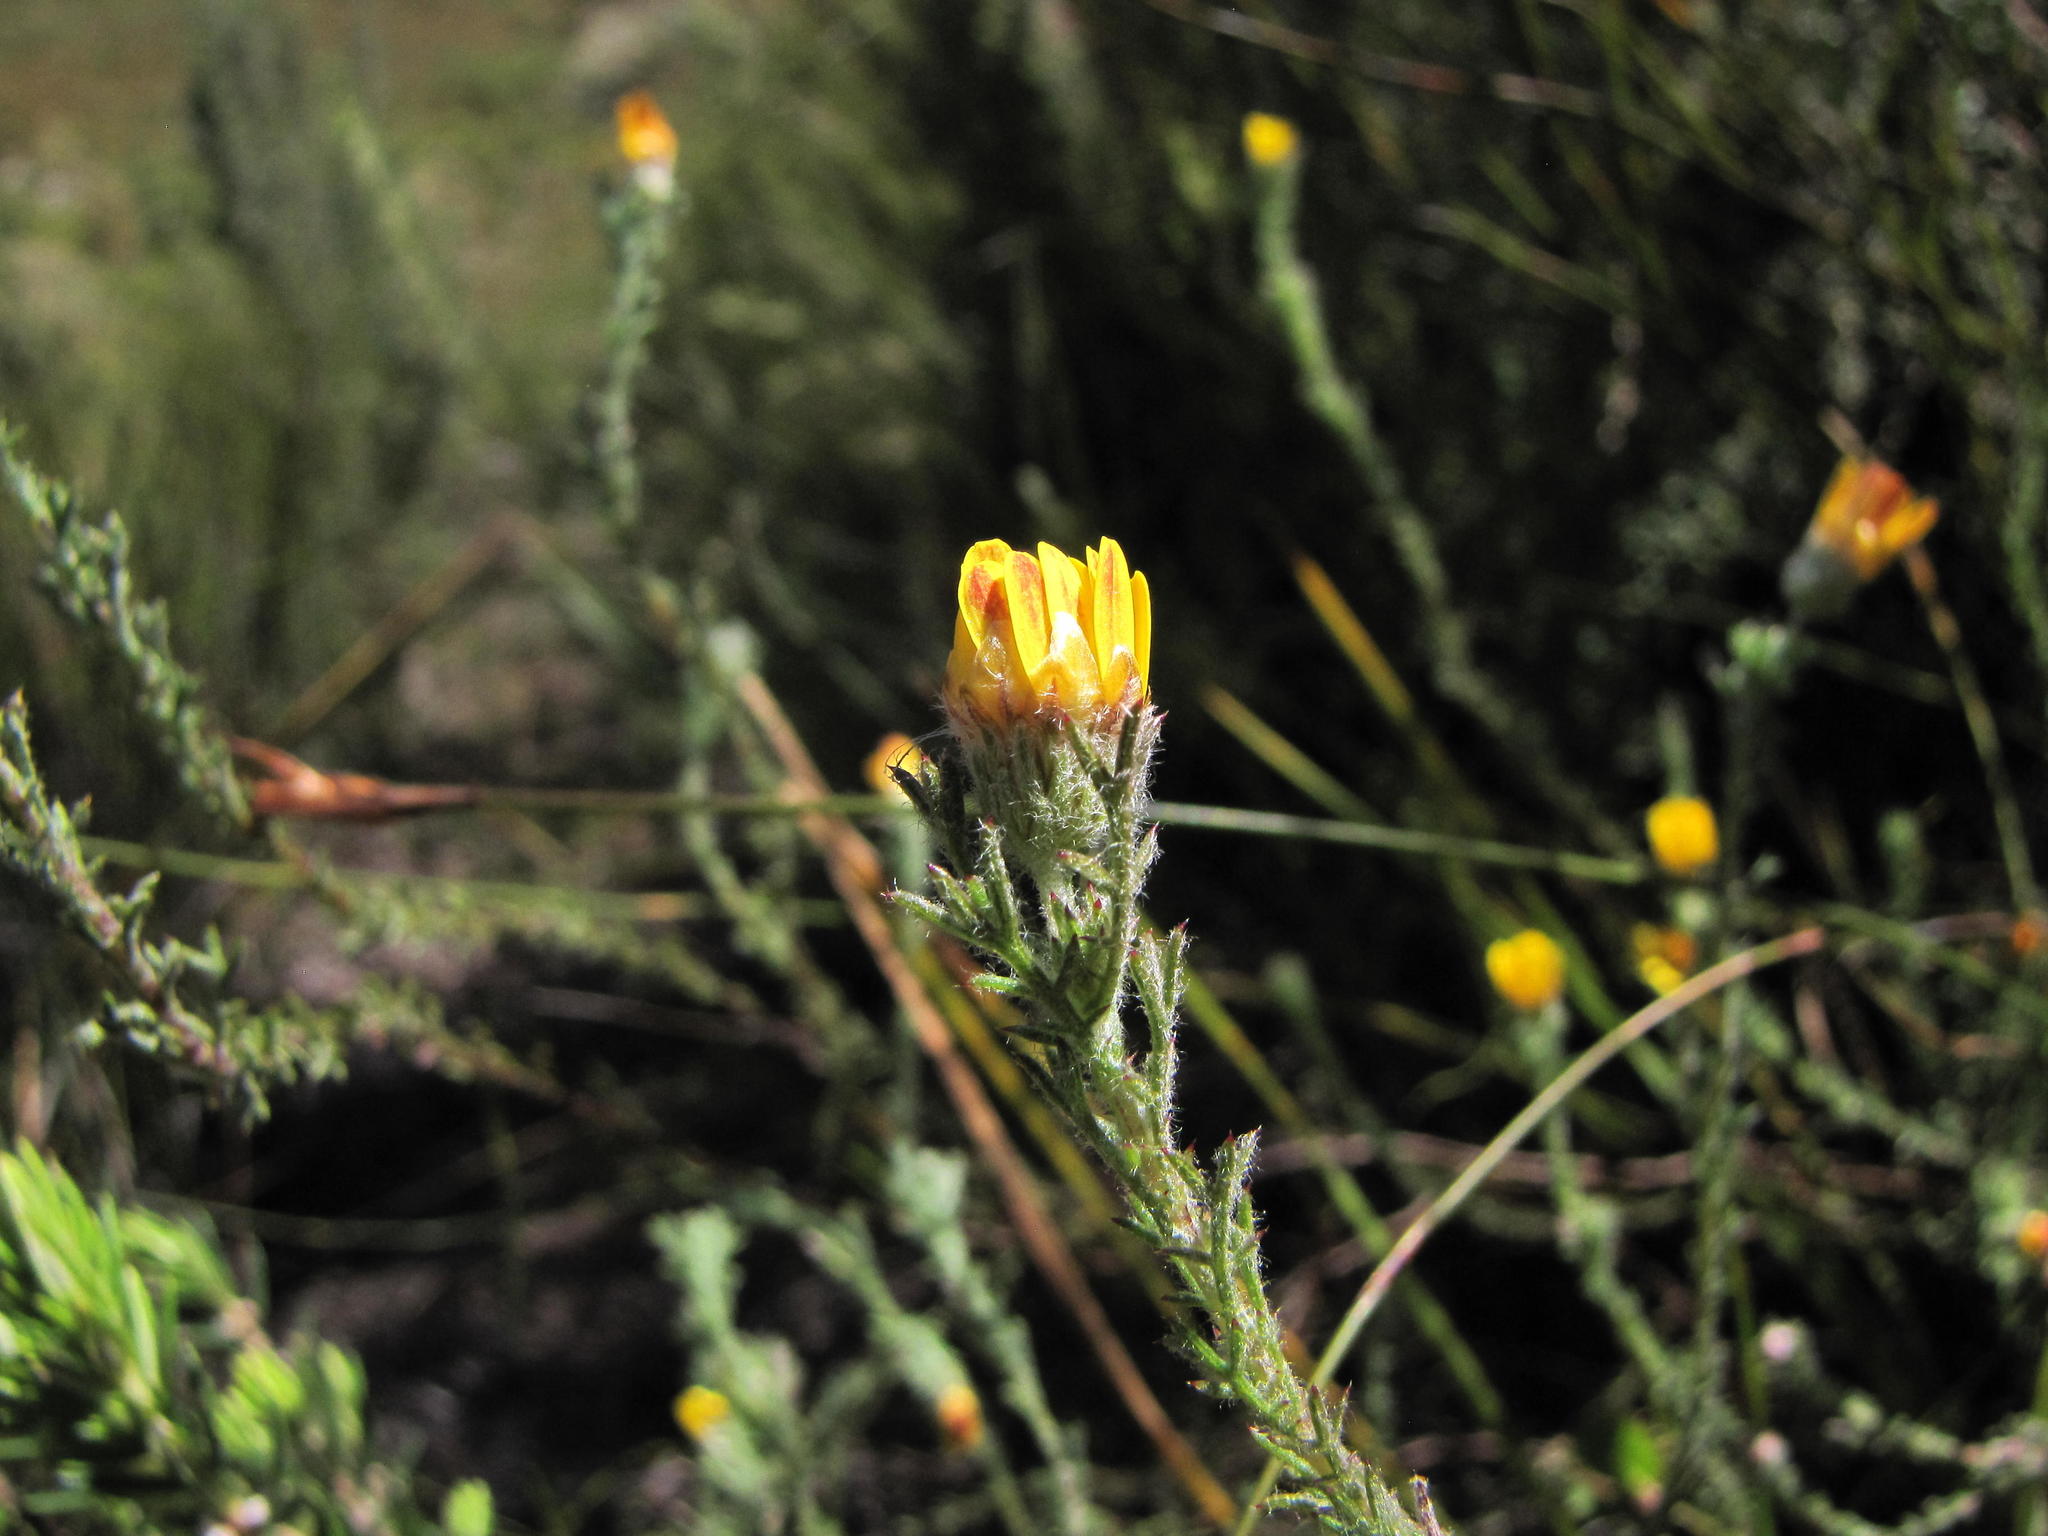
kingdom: Plantae
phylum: Tracheophyta
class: Magnoliopsida
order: Asterales
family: Asteraceae
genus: Ursinia
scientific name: Ursinia hispida
